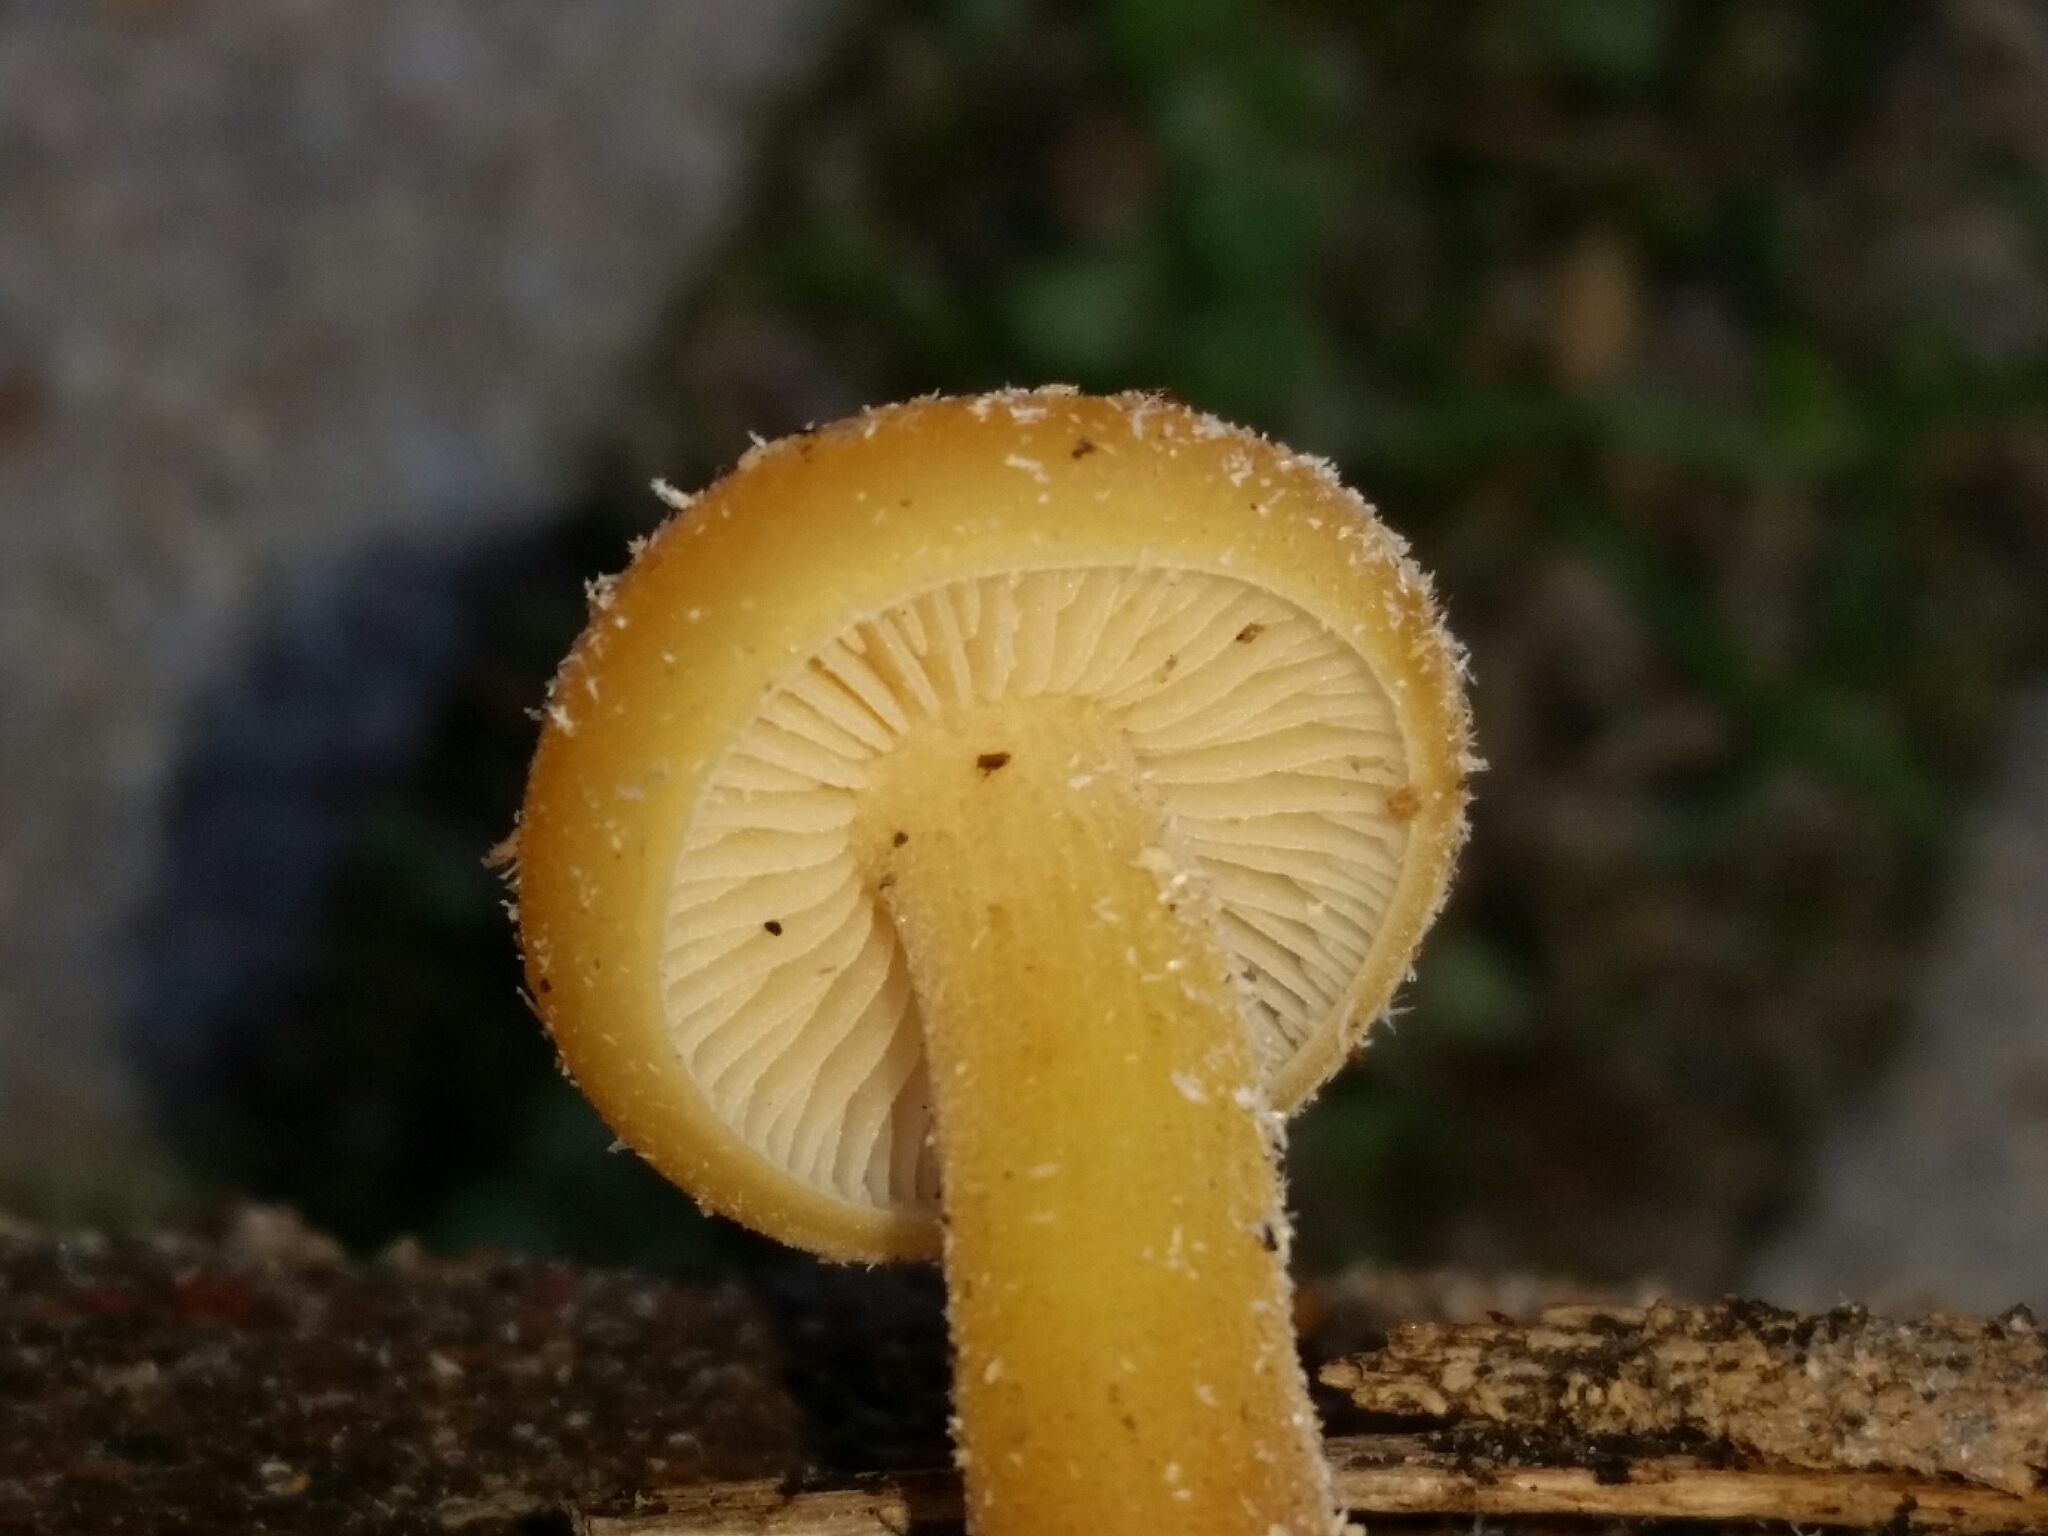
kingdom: Fungi
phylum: Basidiomycota
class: Agaricomycetes
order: Agaricales
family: Physalacriaceae
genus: Flammulina
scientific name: Flammulina velutipes
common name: Velvet shank
